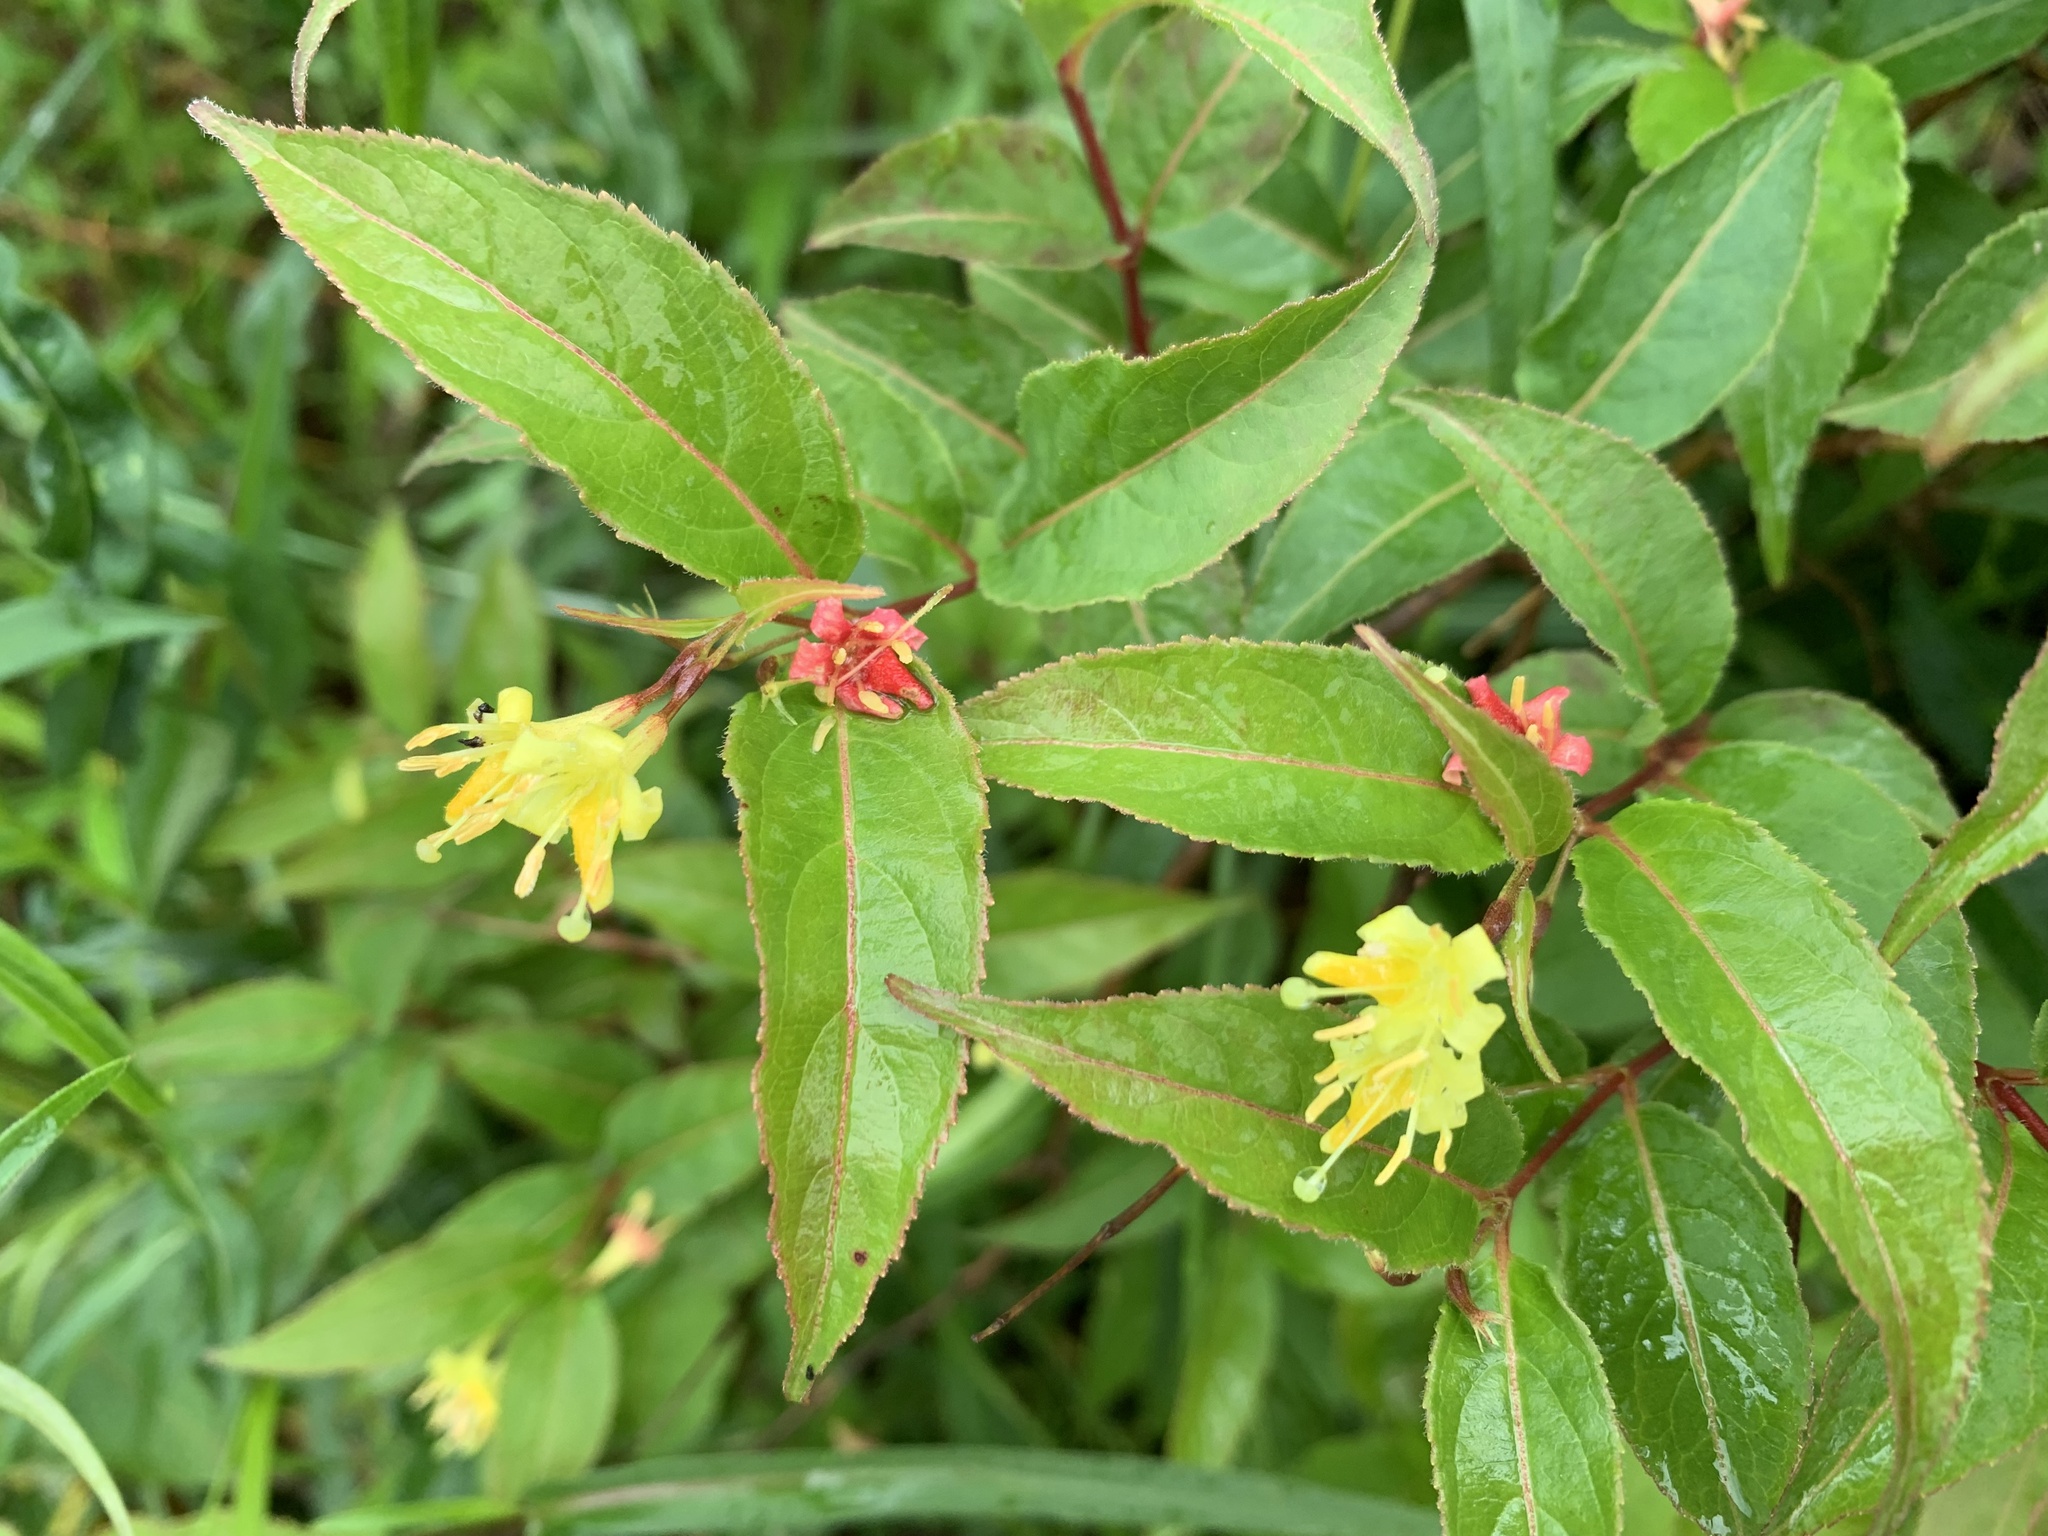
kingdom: Plantae
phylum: Tracheophyta
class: Magnoliopsida
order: Dipsacales
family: Caprifoliaceae
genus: Diervilla
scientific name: Diervilla lonicera
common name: Bush-honeysuckle
